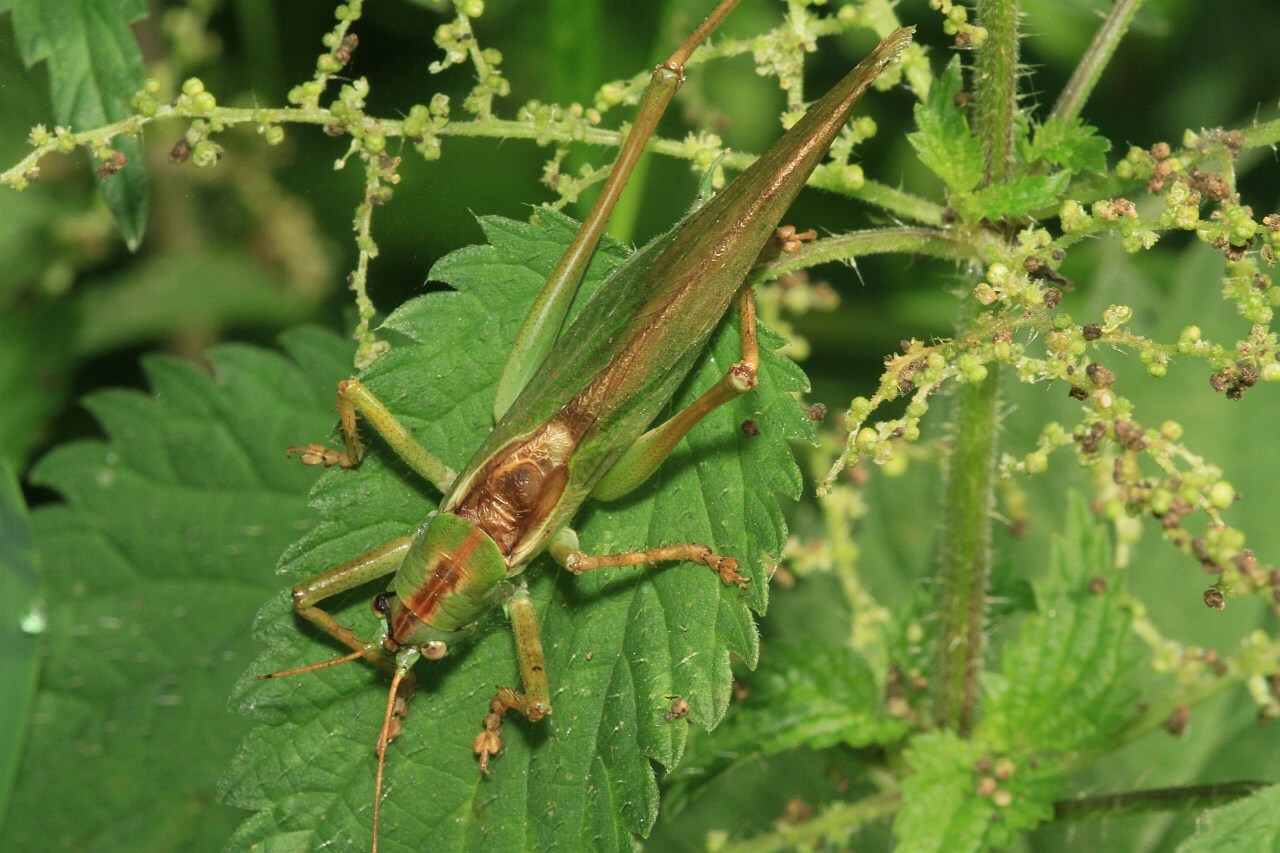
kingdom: Animalia
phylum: Arthropoda
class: Insecta
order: Orthoptera
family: Tettigoniidae
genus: Tettigonia
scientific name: Tettigonia viridissima
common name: Great green bush-cricket
